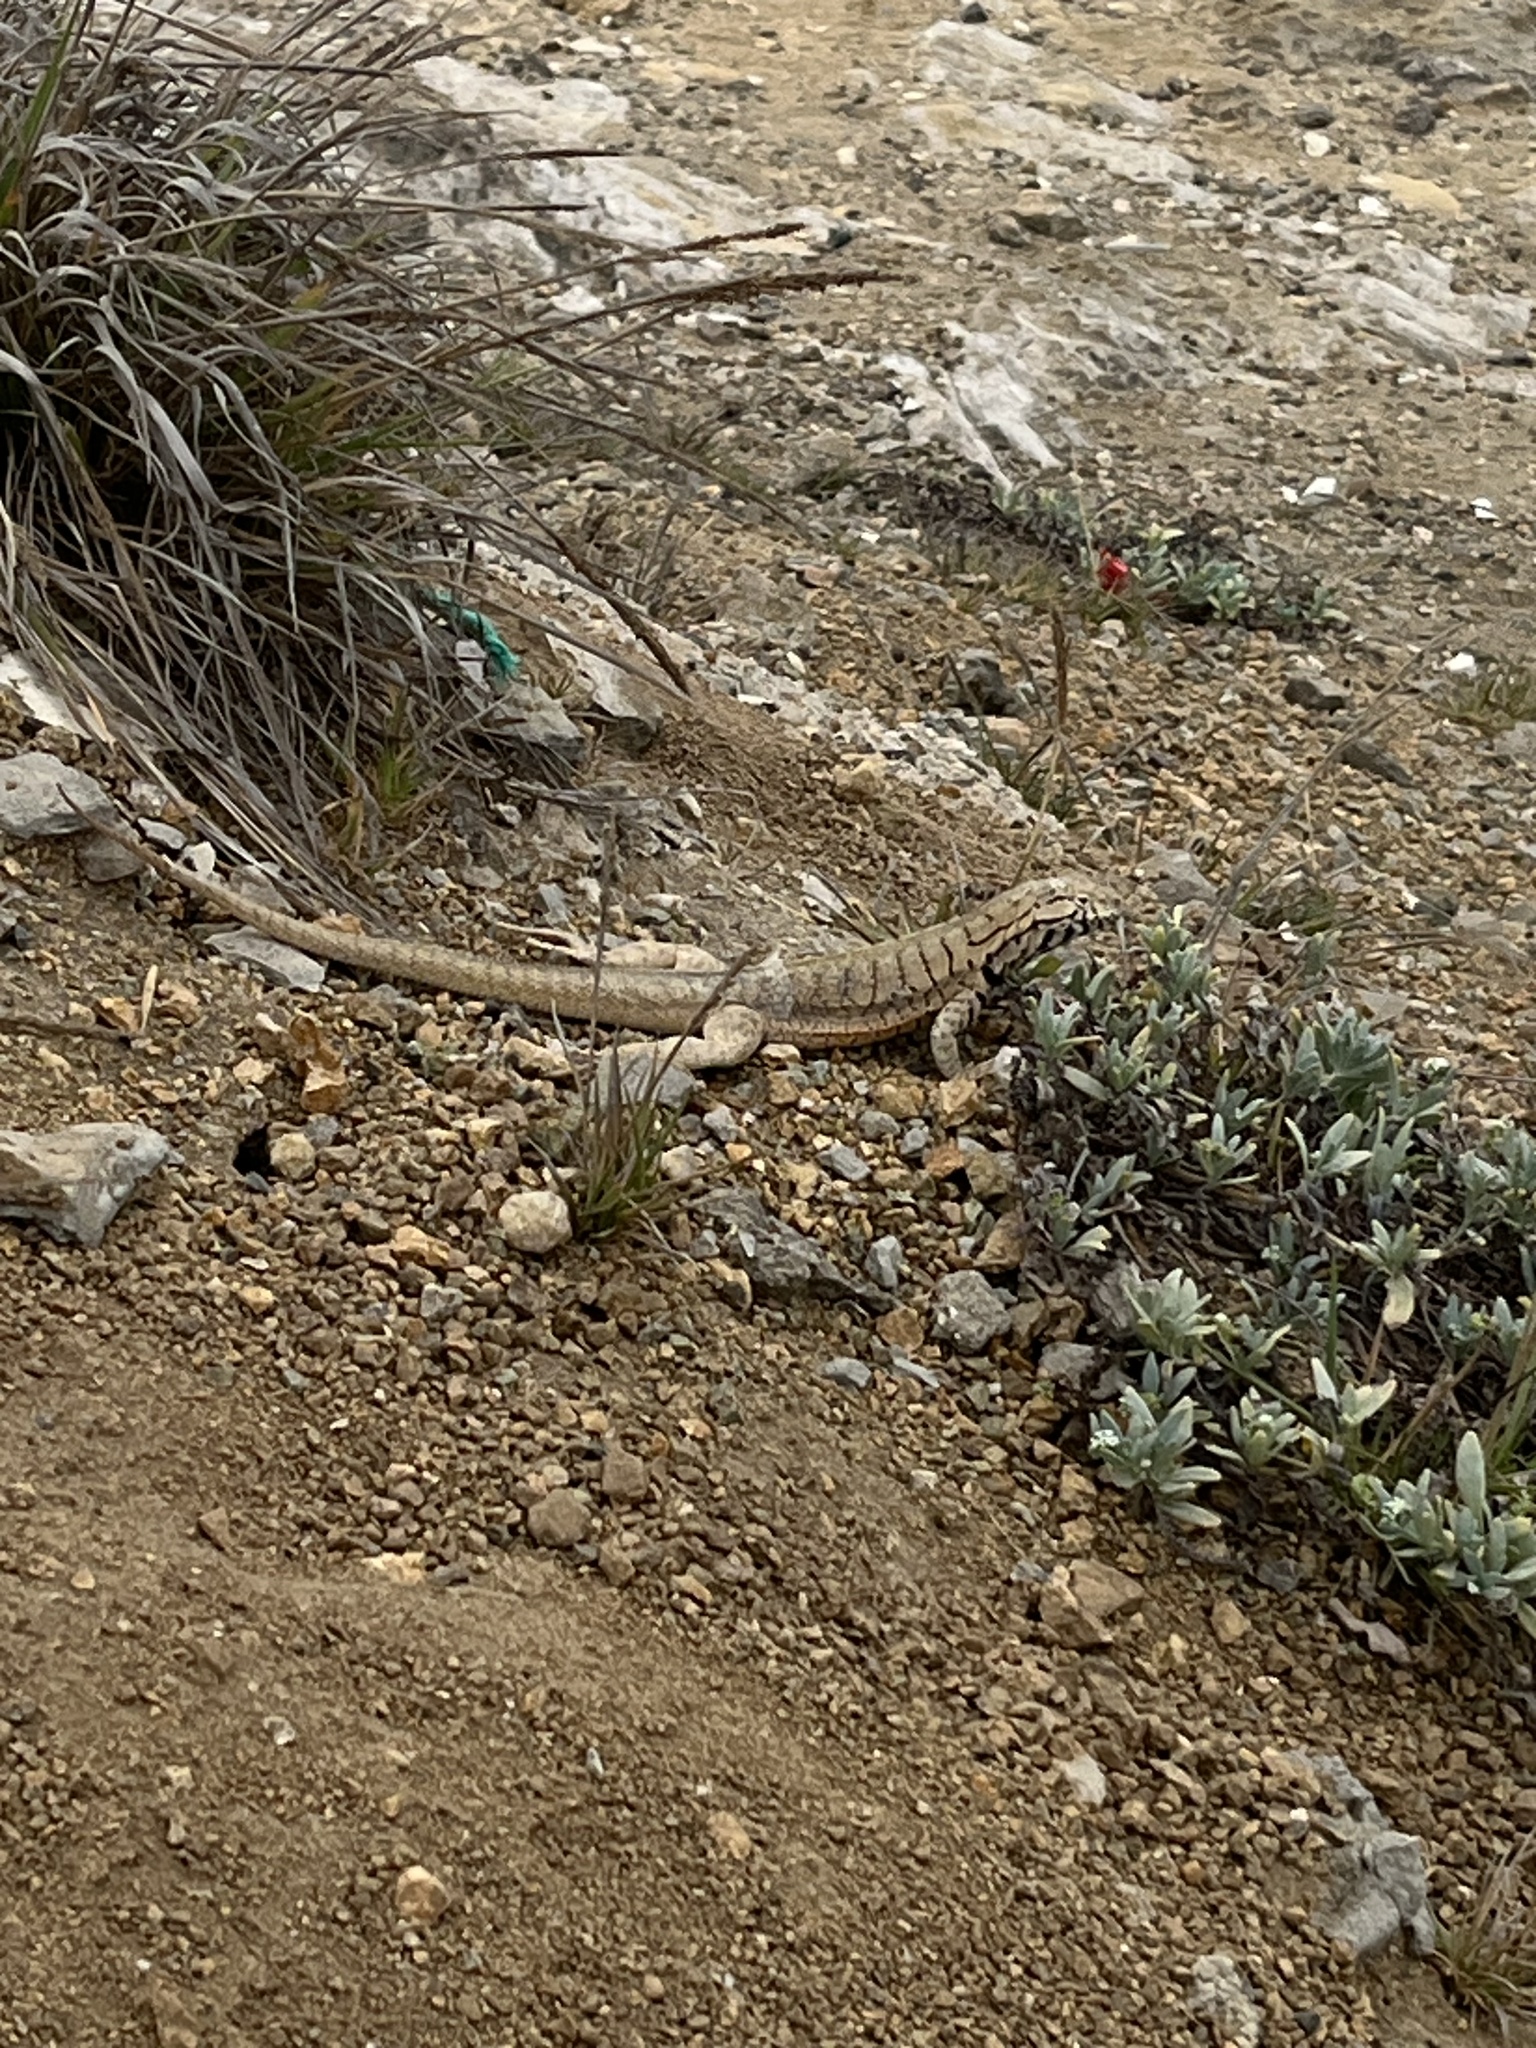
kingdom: Animalia
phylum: Chordata
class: Squamata
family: Tropiduridae
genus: Microlophus
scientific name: Microlophus peruvianus
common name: Peru pacific iguana
